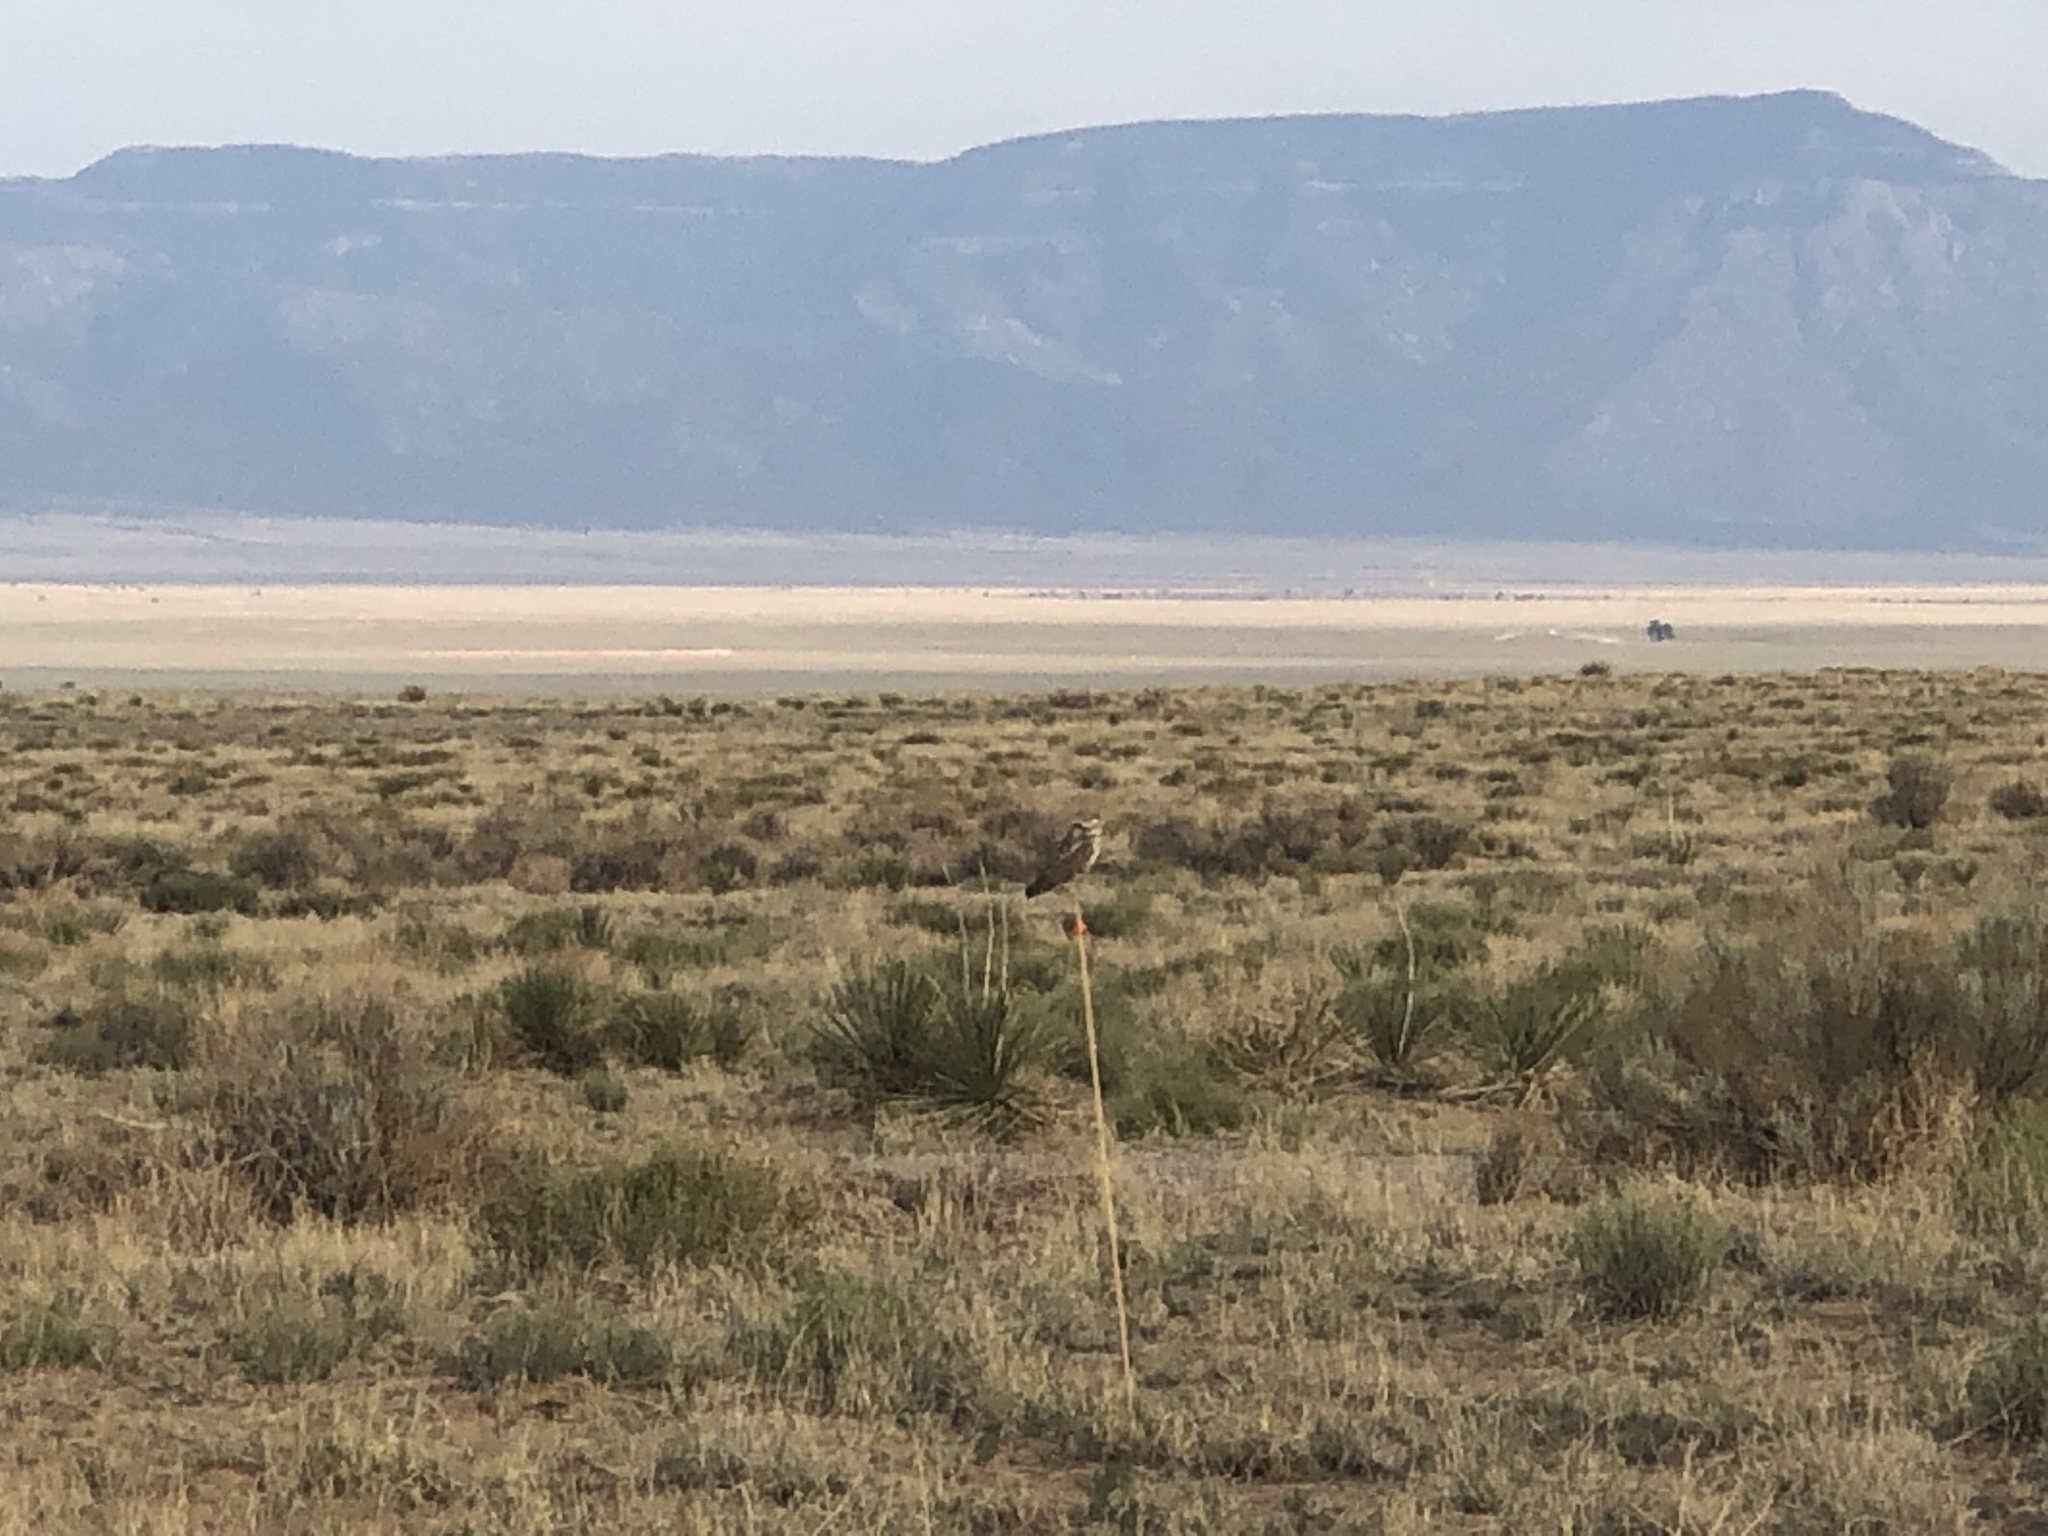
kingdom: Animalia
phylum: Chordata
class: Aves
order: Strigiformes
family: Strigidae
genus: Athene
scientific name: Athene cunicularia
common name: Burrowing owl
